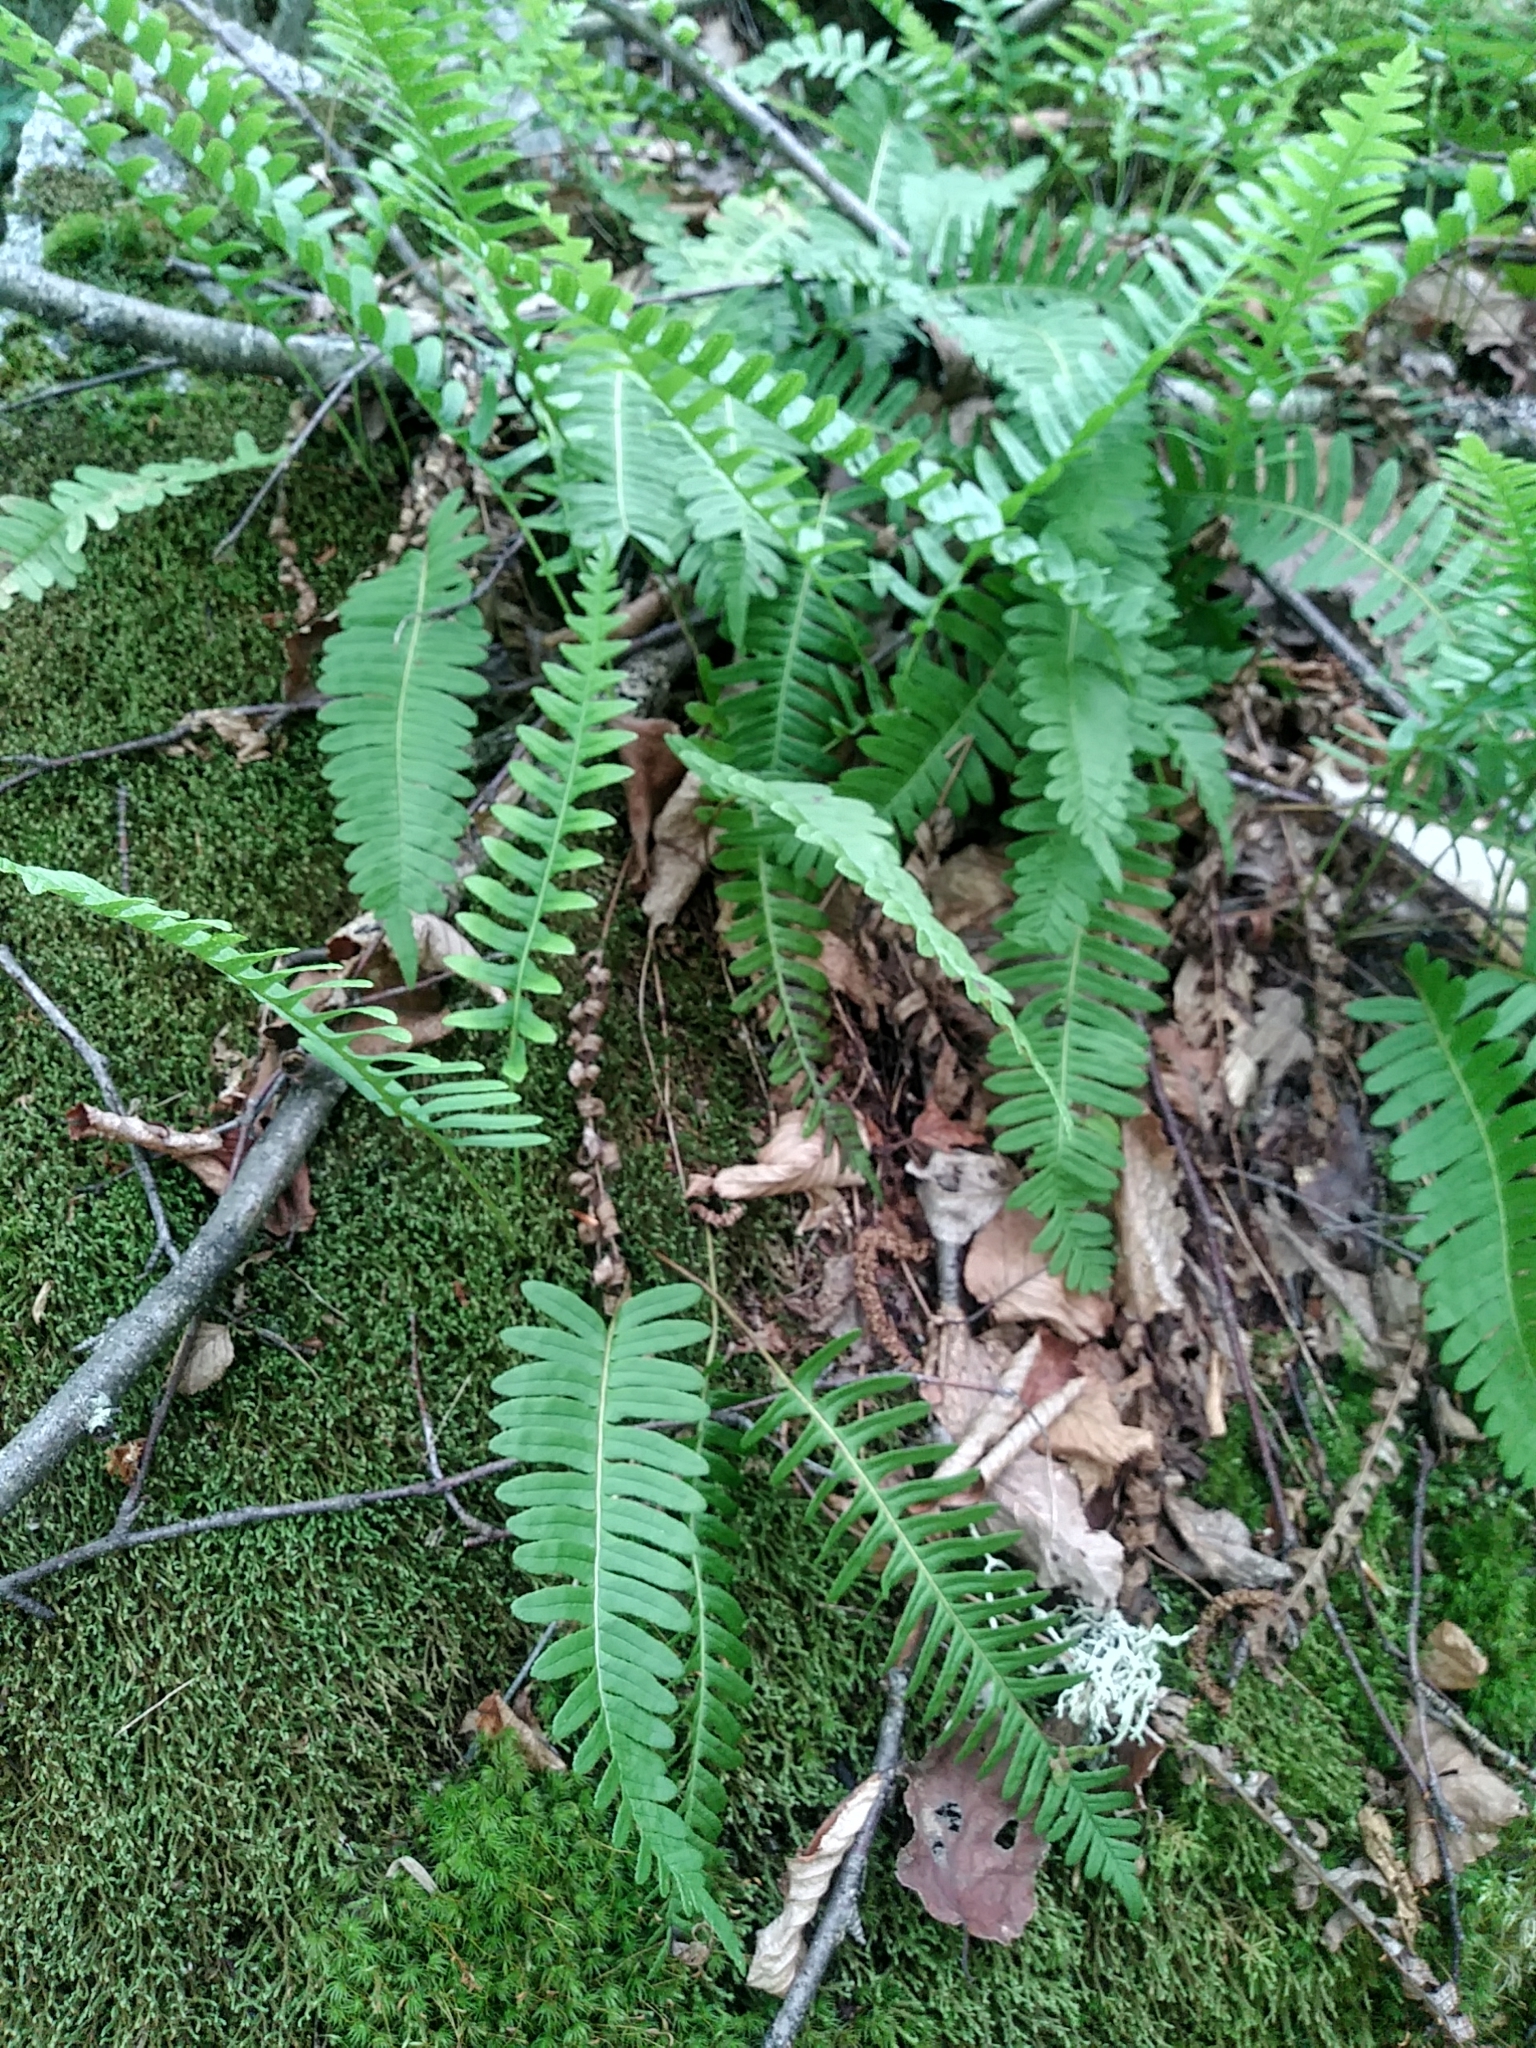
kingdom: Plantae
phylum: Tracheophyta
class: Polypodiopsida
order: Polypodiales
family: Polypodiaceae
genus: Polypodium
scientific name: Polypodium virginianum
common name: American wall fern
